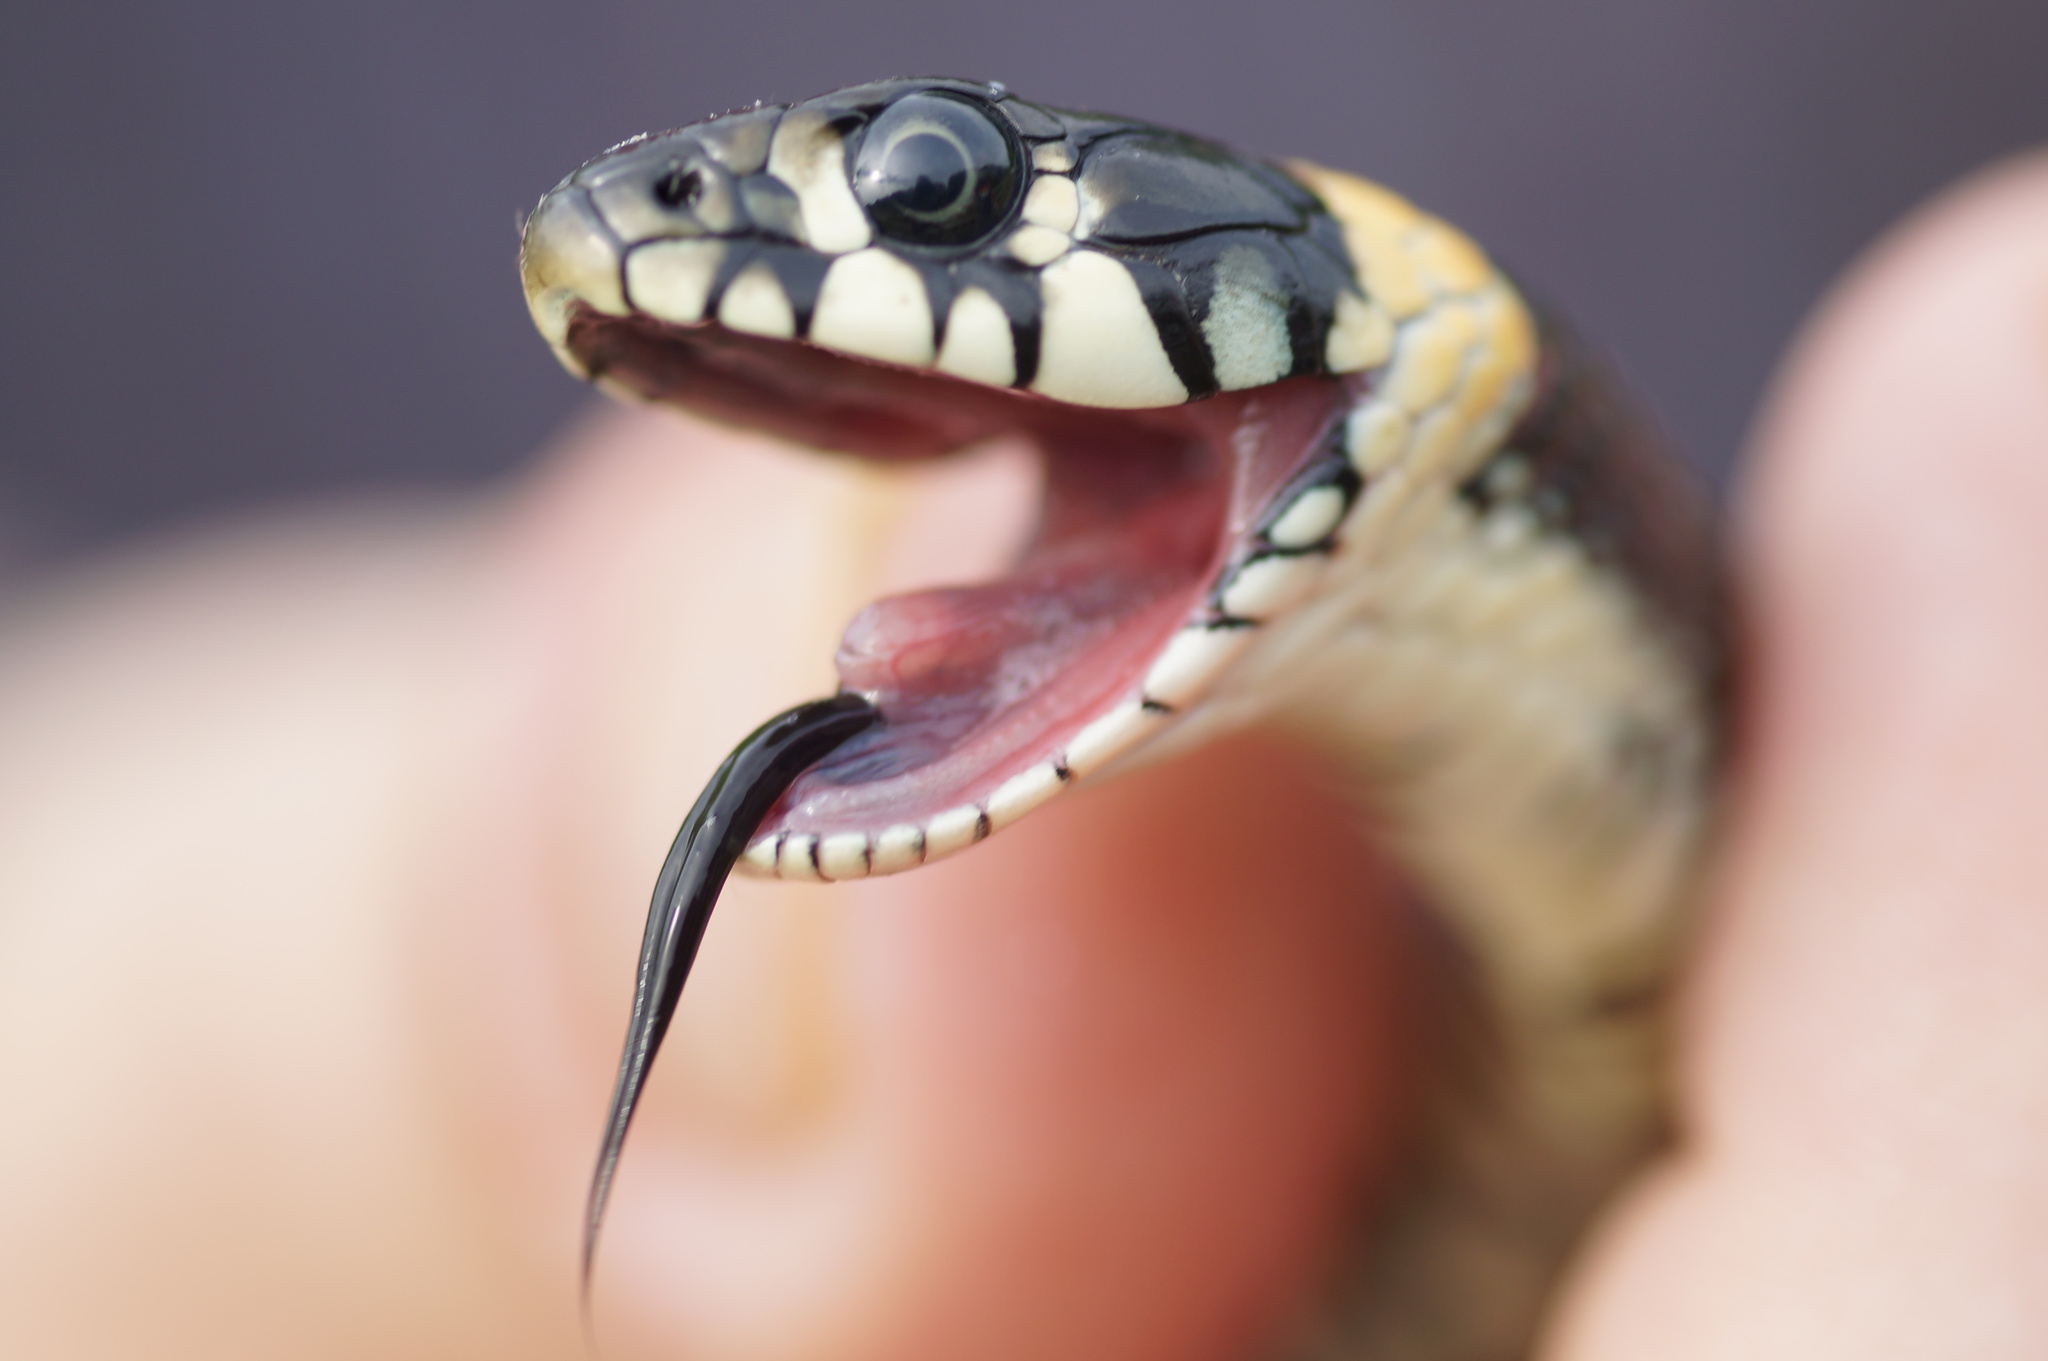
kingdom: Animalia
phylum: Chordata
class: Squamata
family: Colubridae
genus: Natrix
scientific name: Natrix natrix
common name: Grass snake
